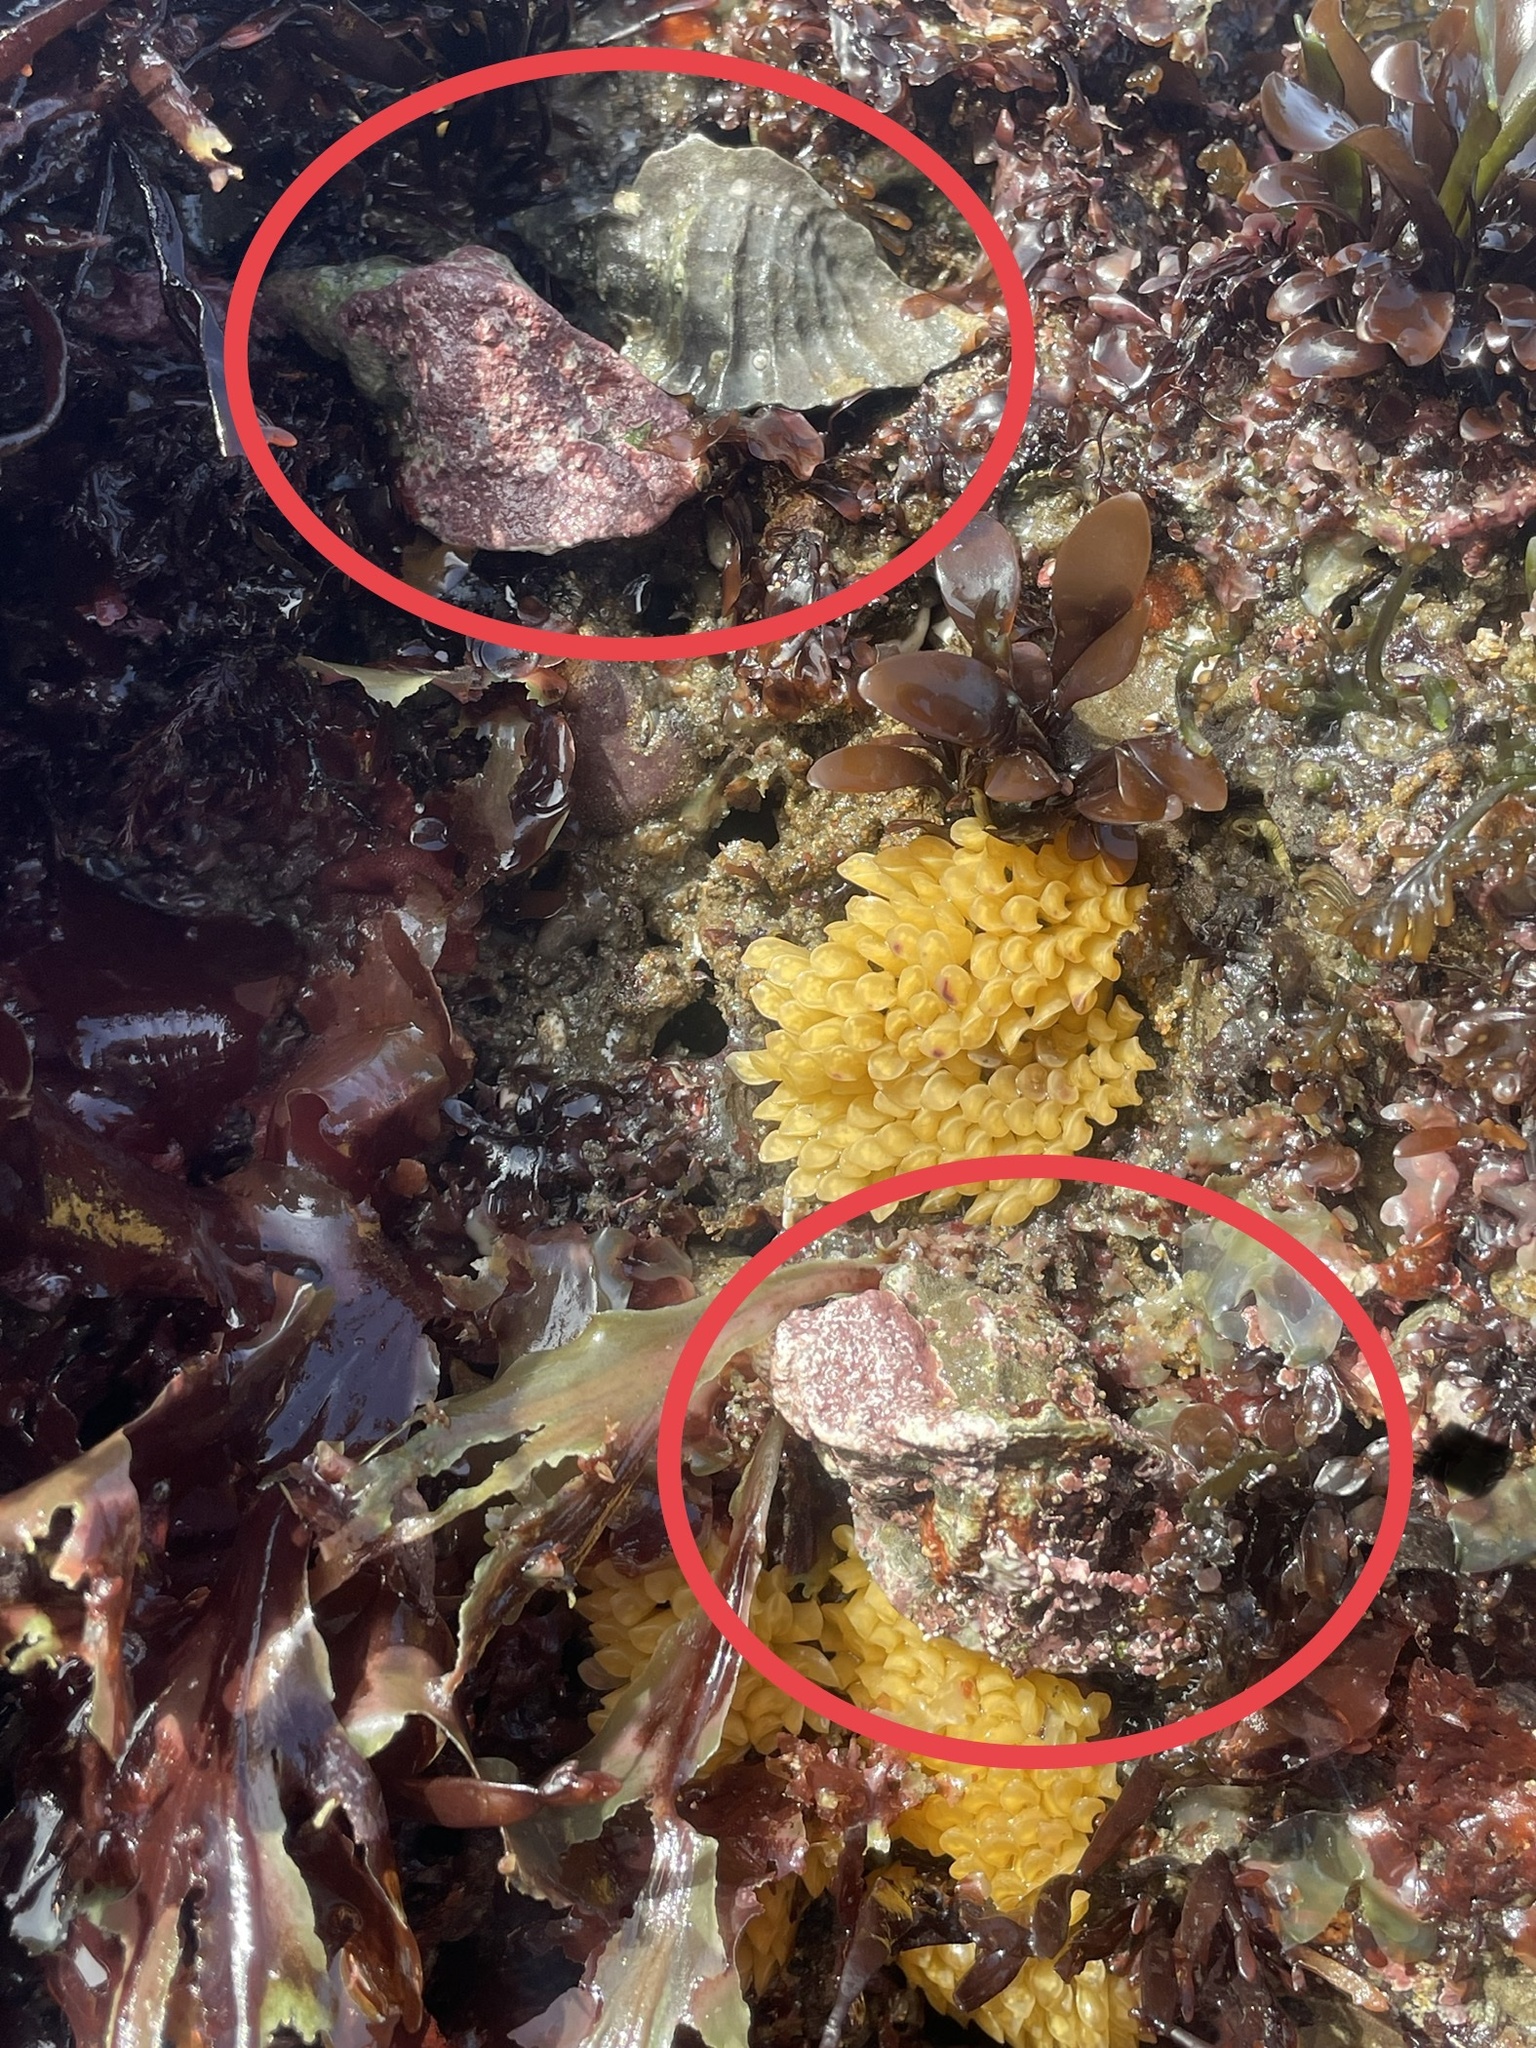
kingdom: Animalia
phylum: Mollusca
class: Gastropoda
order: Neogastropoda
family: Muricidae
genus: Ceratostoma
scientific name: Ceratostoma foliatum
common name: Foliate thorn purpura
